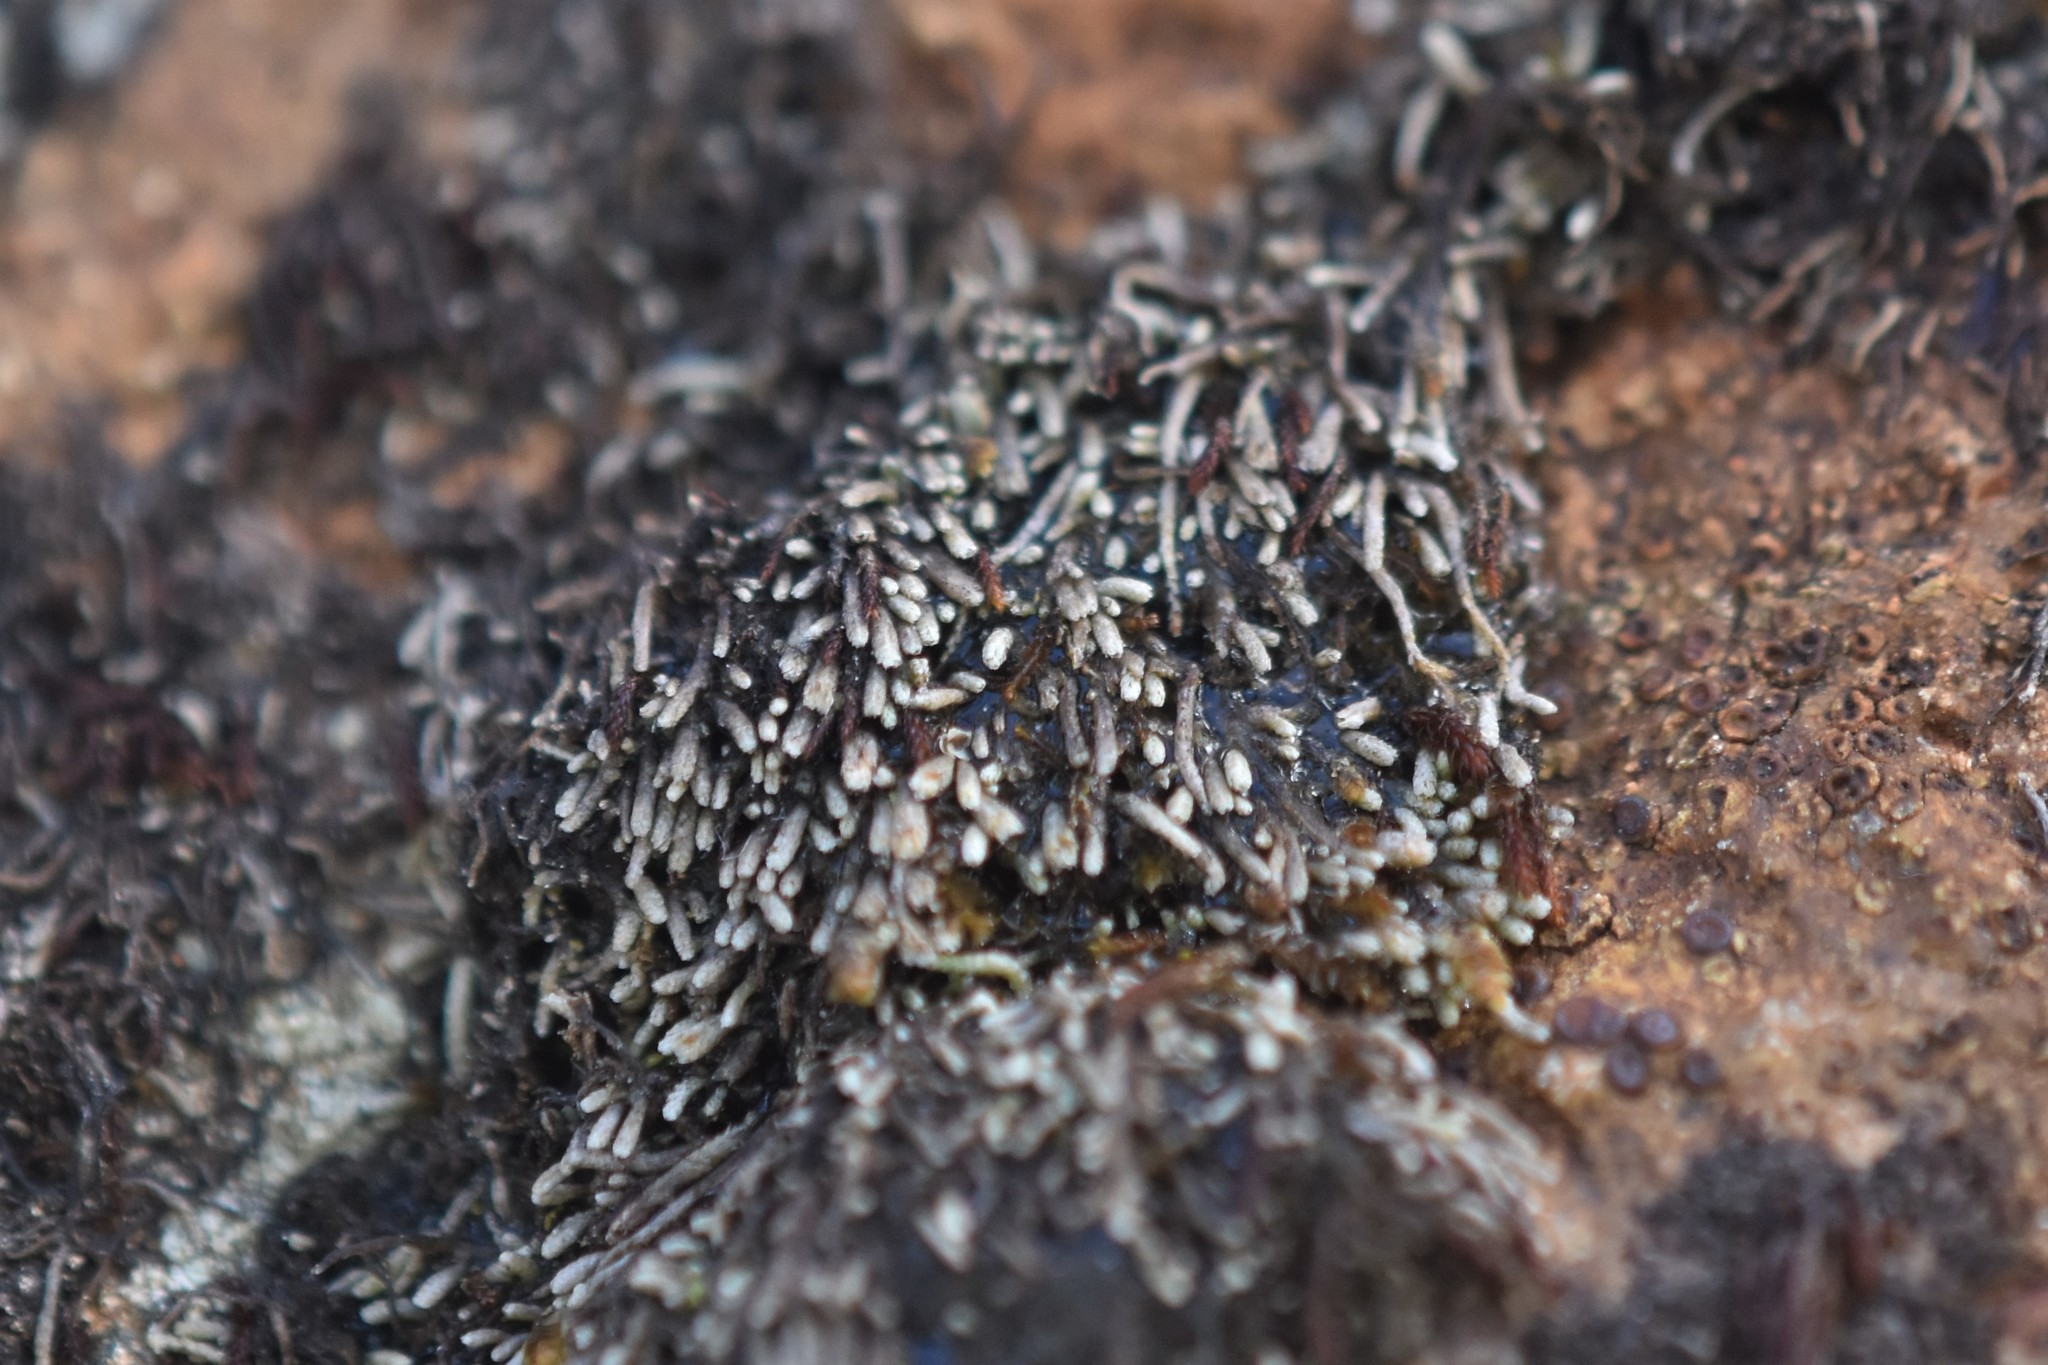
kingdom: Plantae
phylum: Marchantiophyta
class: Jungermanniopsida
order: Jungermanniales
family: Gymnomitriaceae
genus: Gymnomitrion
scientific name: Gymnomitrion obtusum
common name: White frostwort
